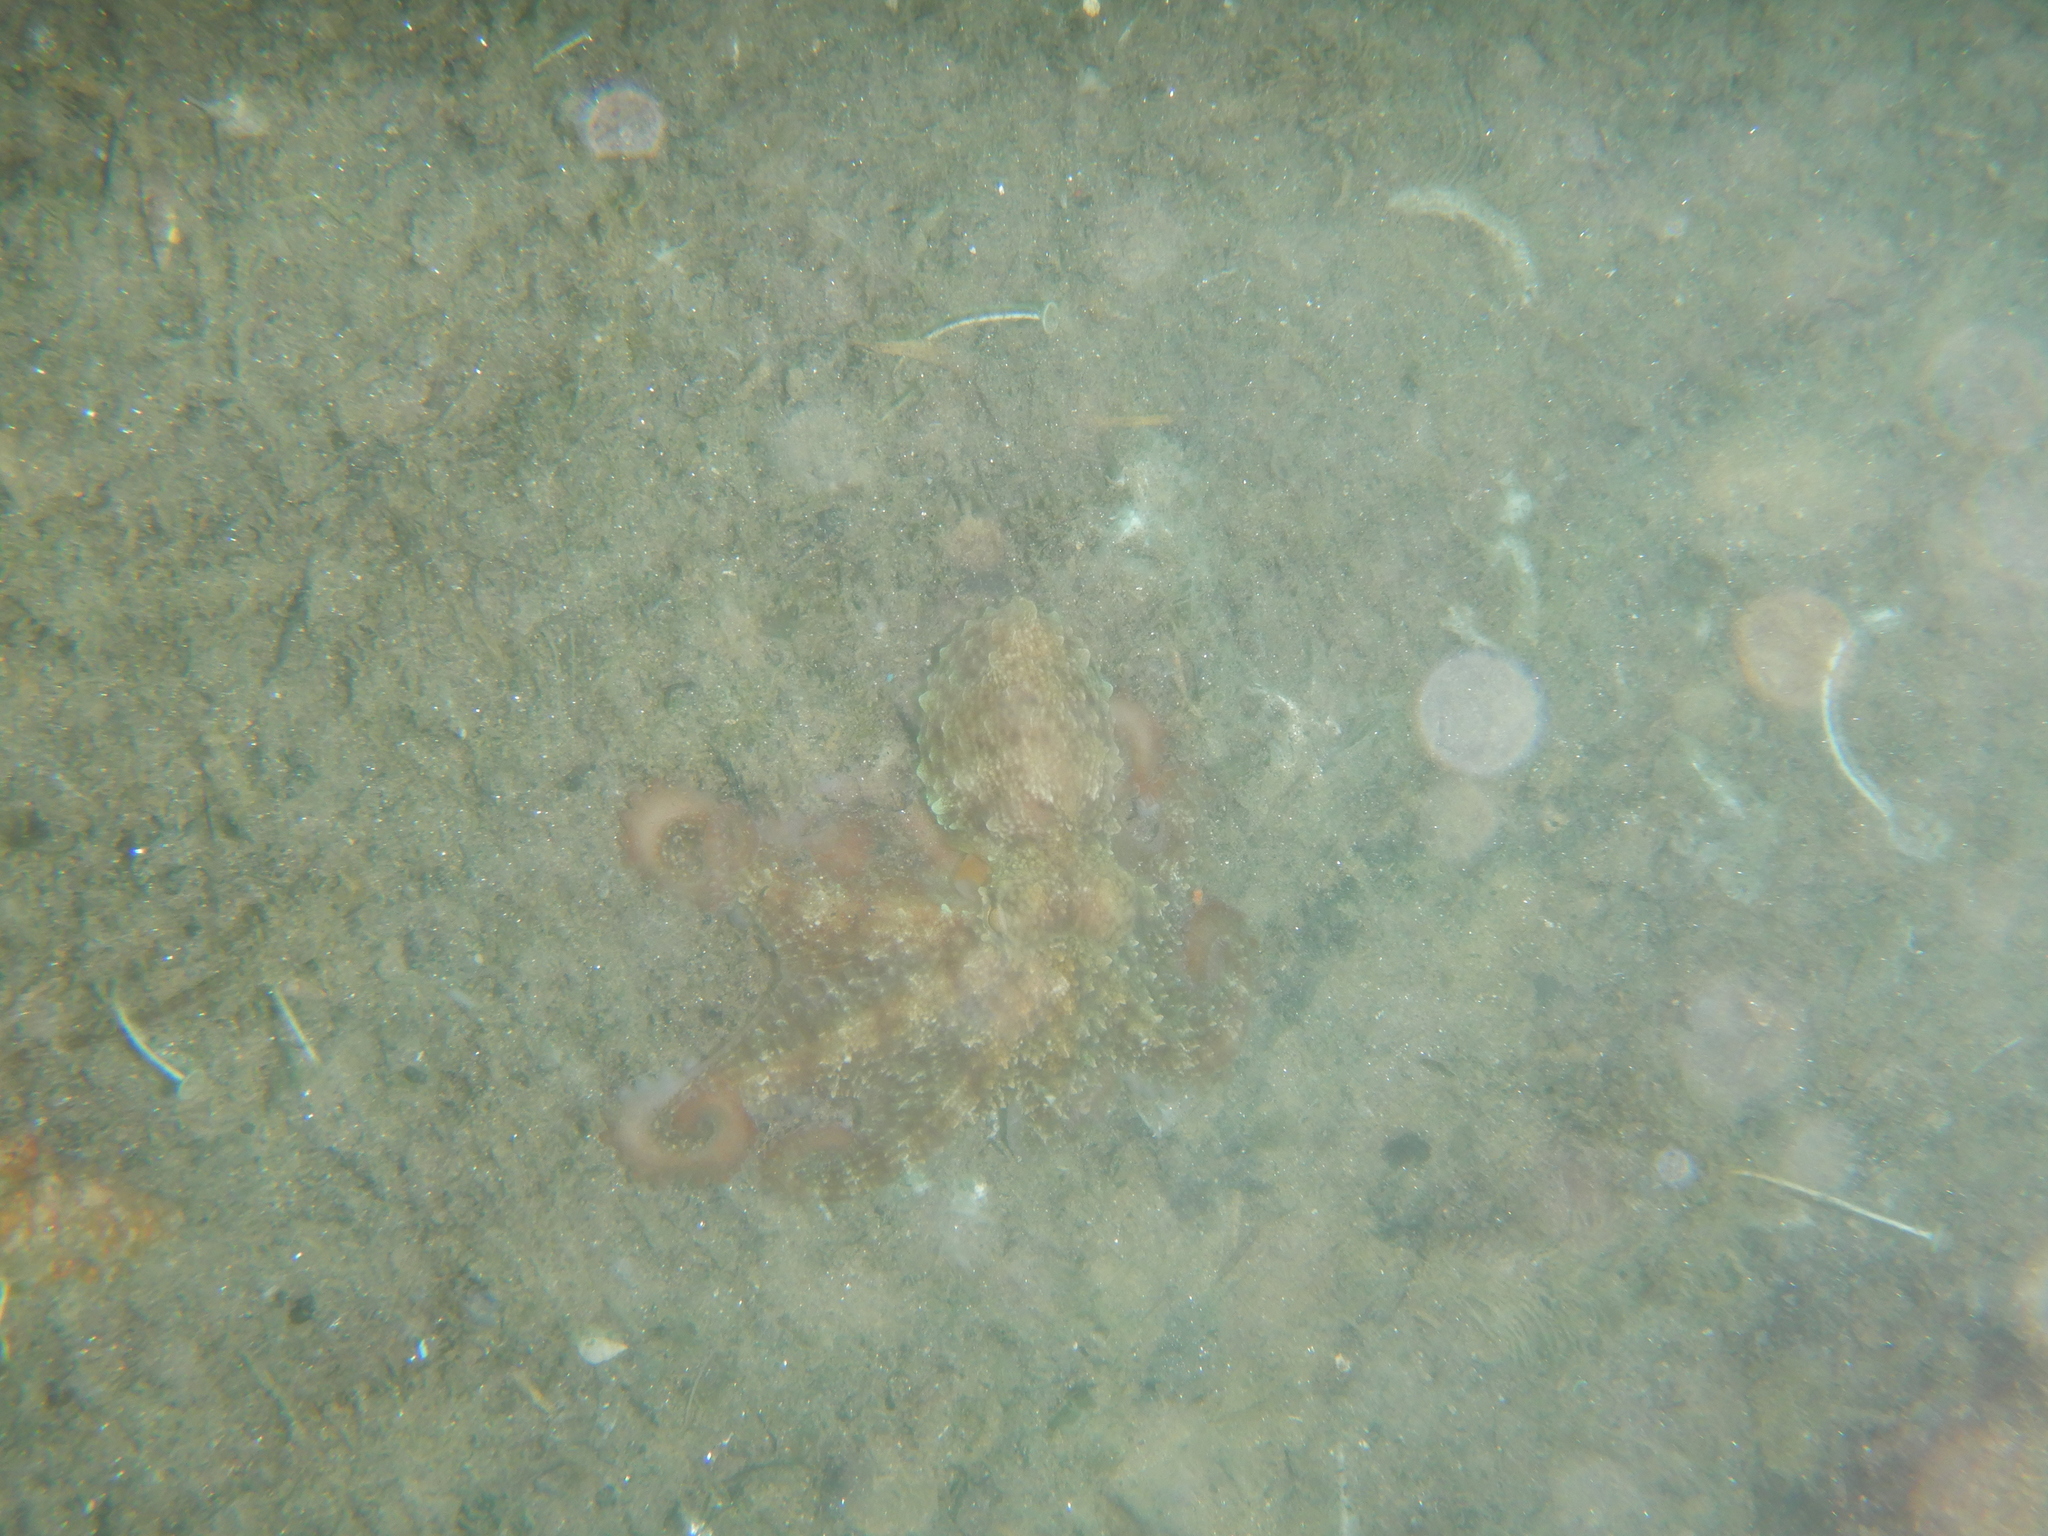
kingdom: Animalia
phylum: Mollusca
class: Cephalopoda
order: Octopoda
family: Octopodidae
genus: Octopus
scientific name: Octopus vulgaris
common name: Common octopus
